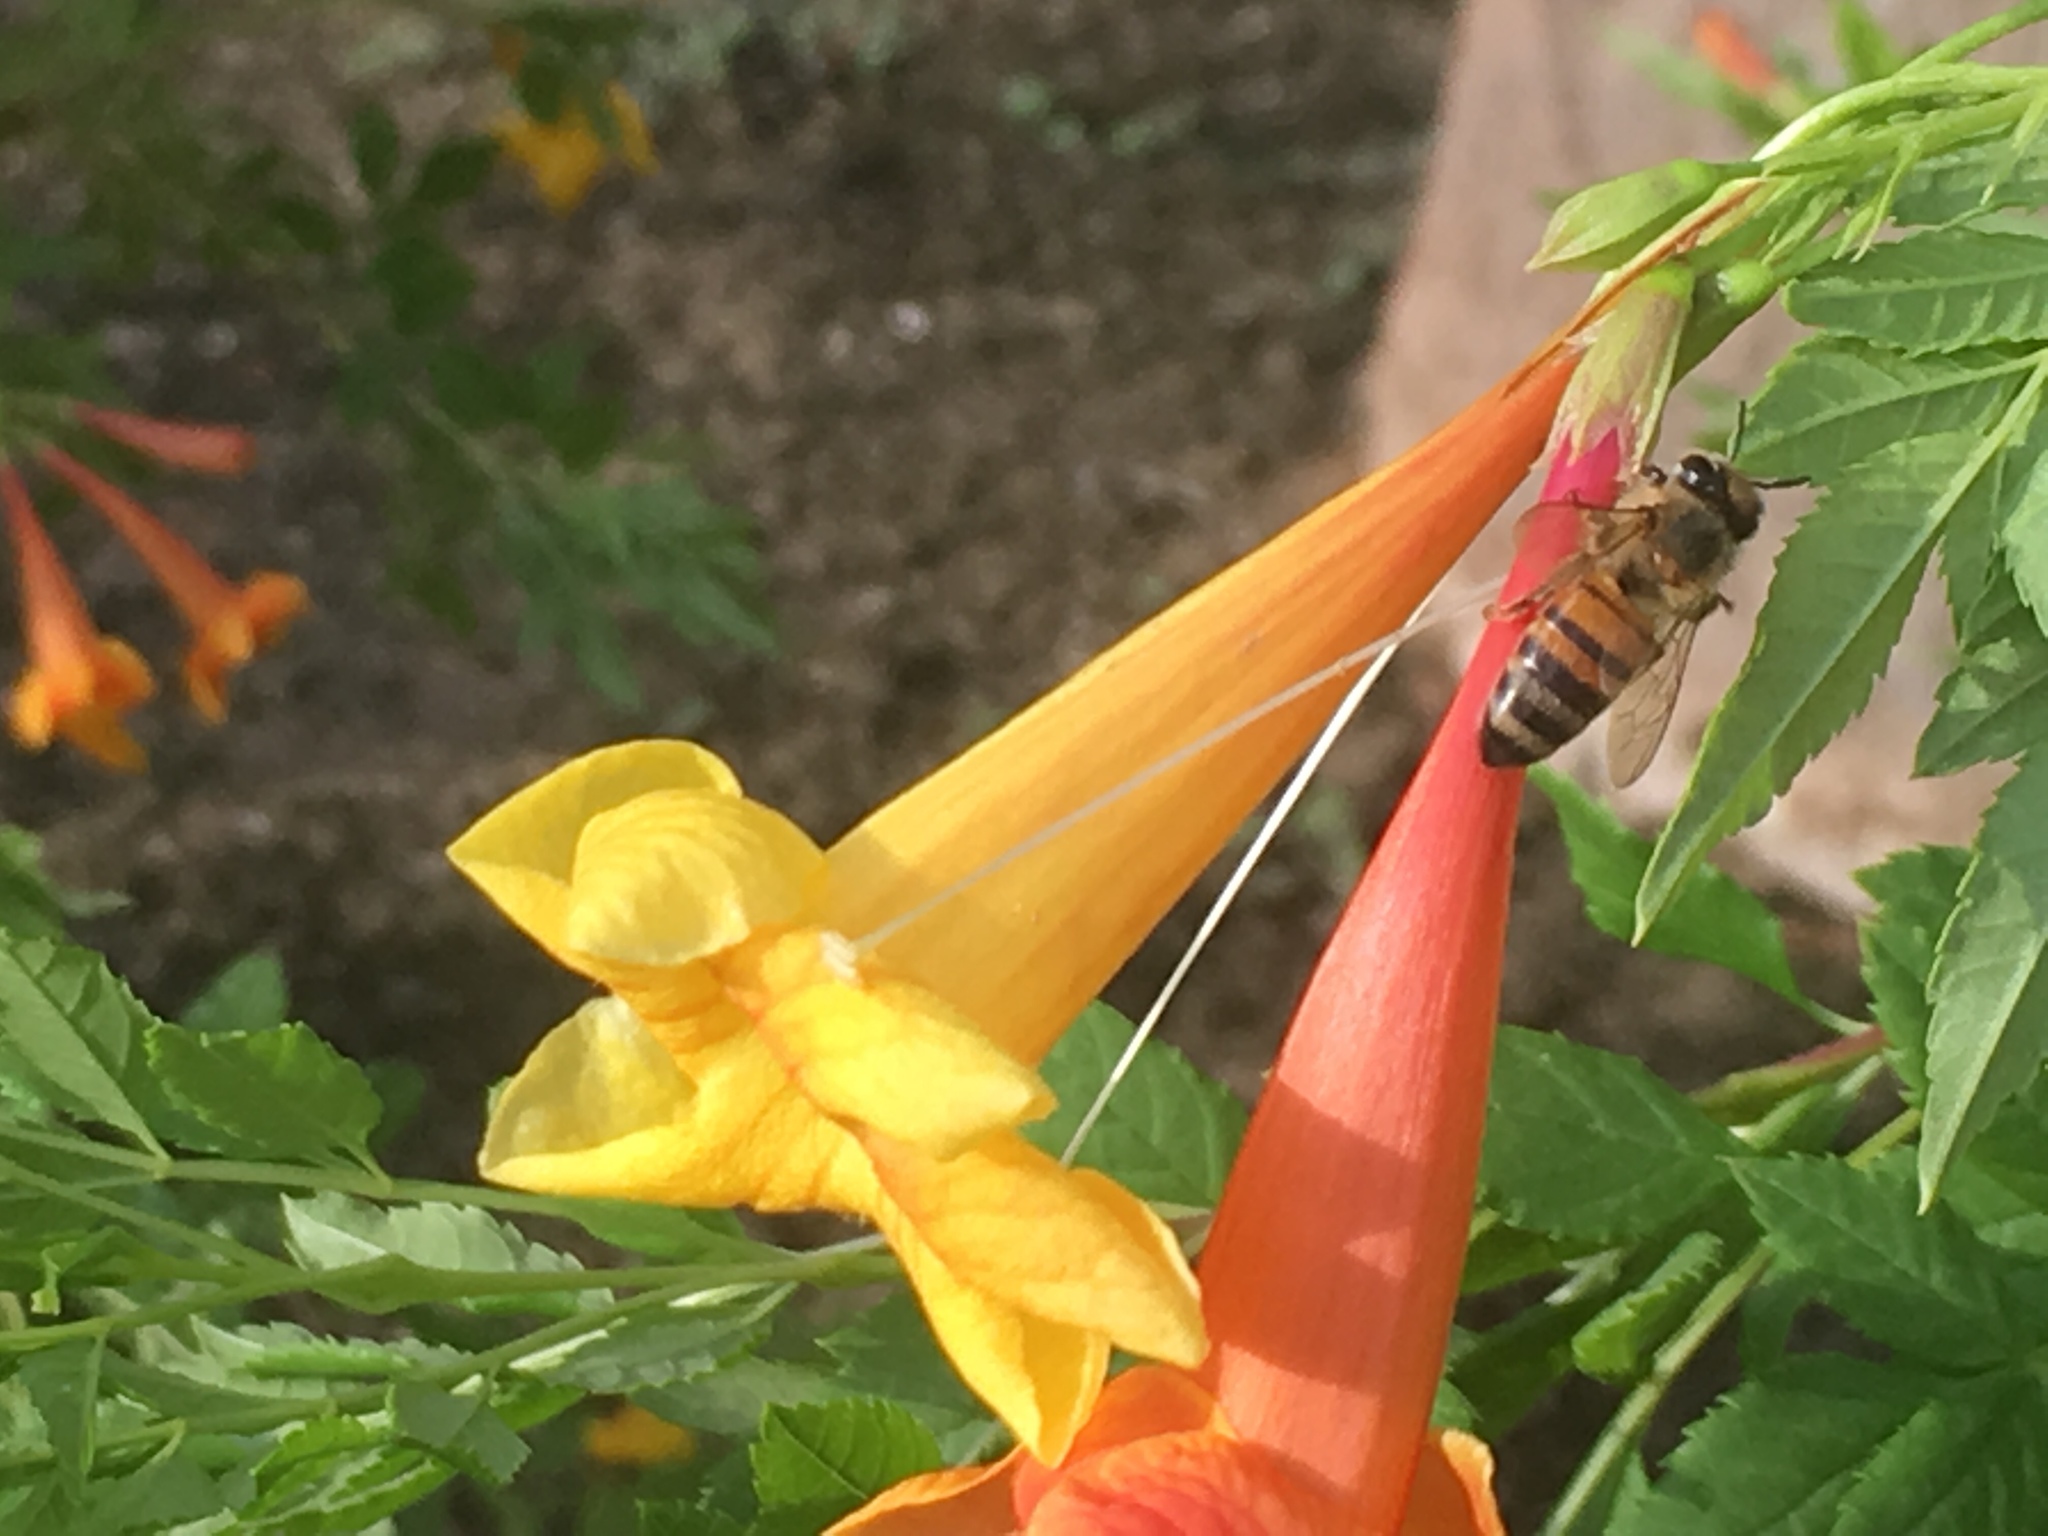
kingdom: Animalia
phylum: Arthropoda
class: Insecta
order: Hymenoptera
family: Apidae
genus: Apis
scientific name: Apis mellifera
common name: Honey bee
